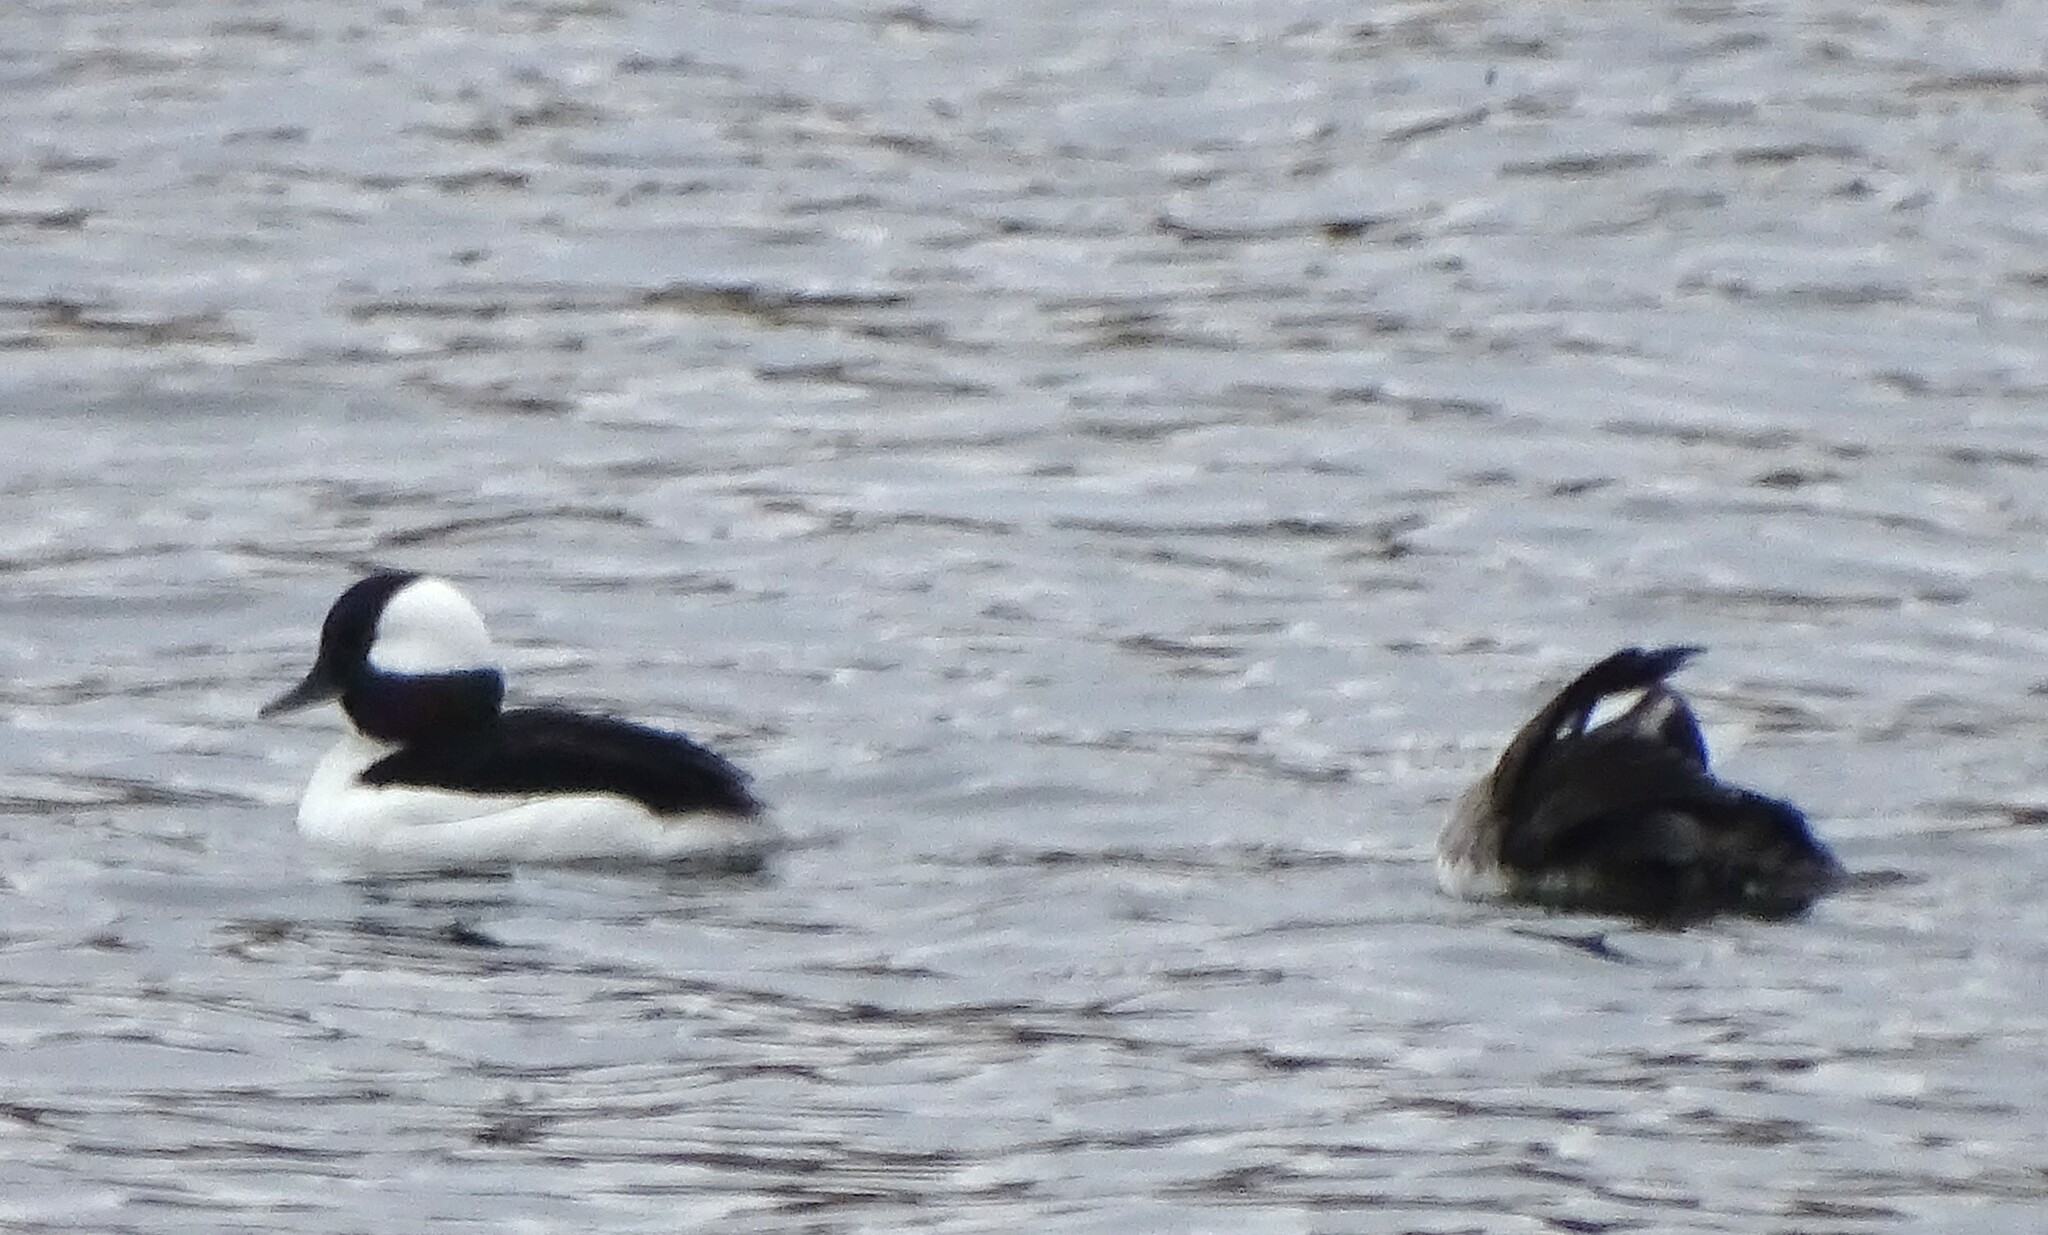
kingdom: Animalia
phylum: Chordata
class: Aves
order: Anseriformes
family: Anatidae
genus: Bucephala
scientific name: Bucephala albeola
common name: Bufflehead
